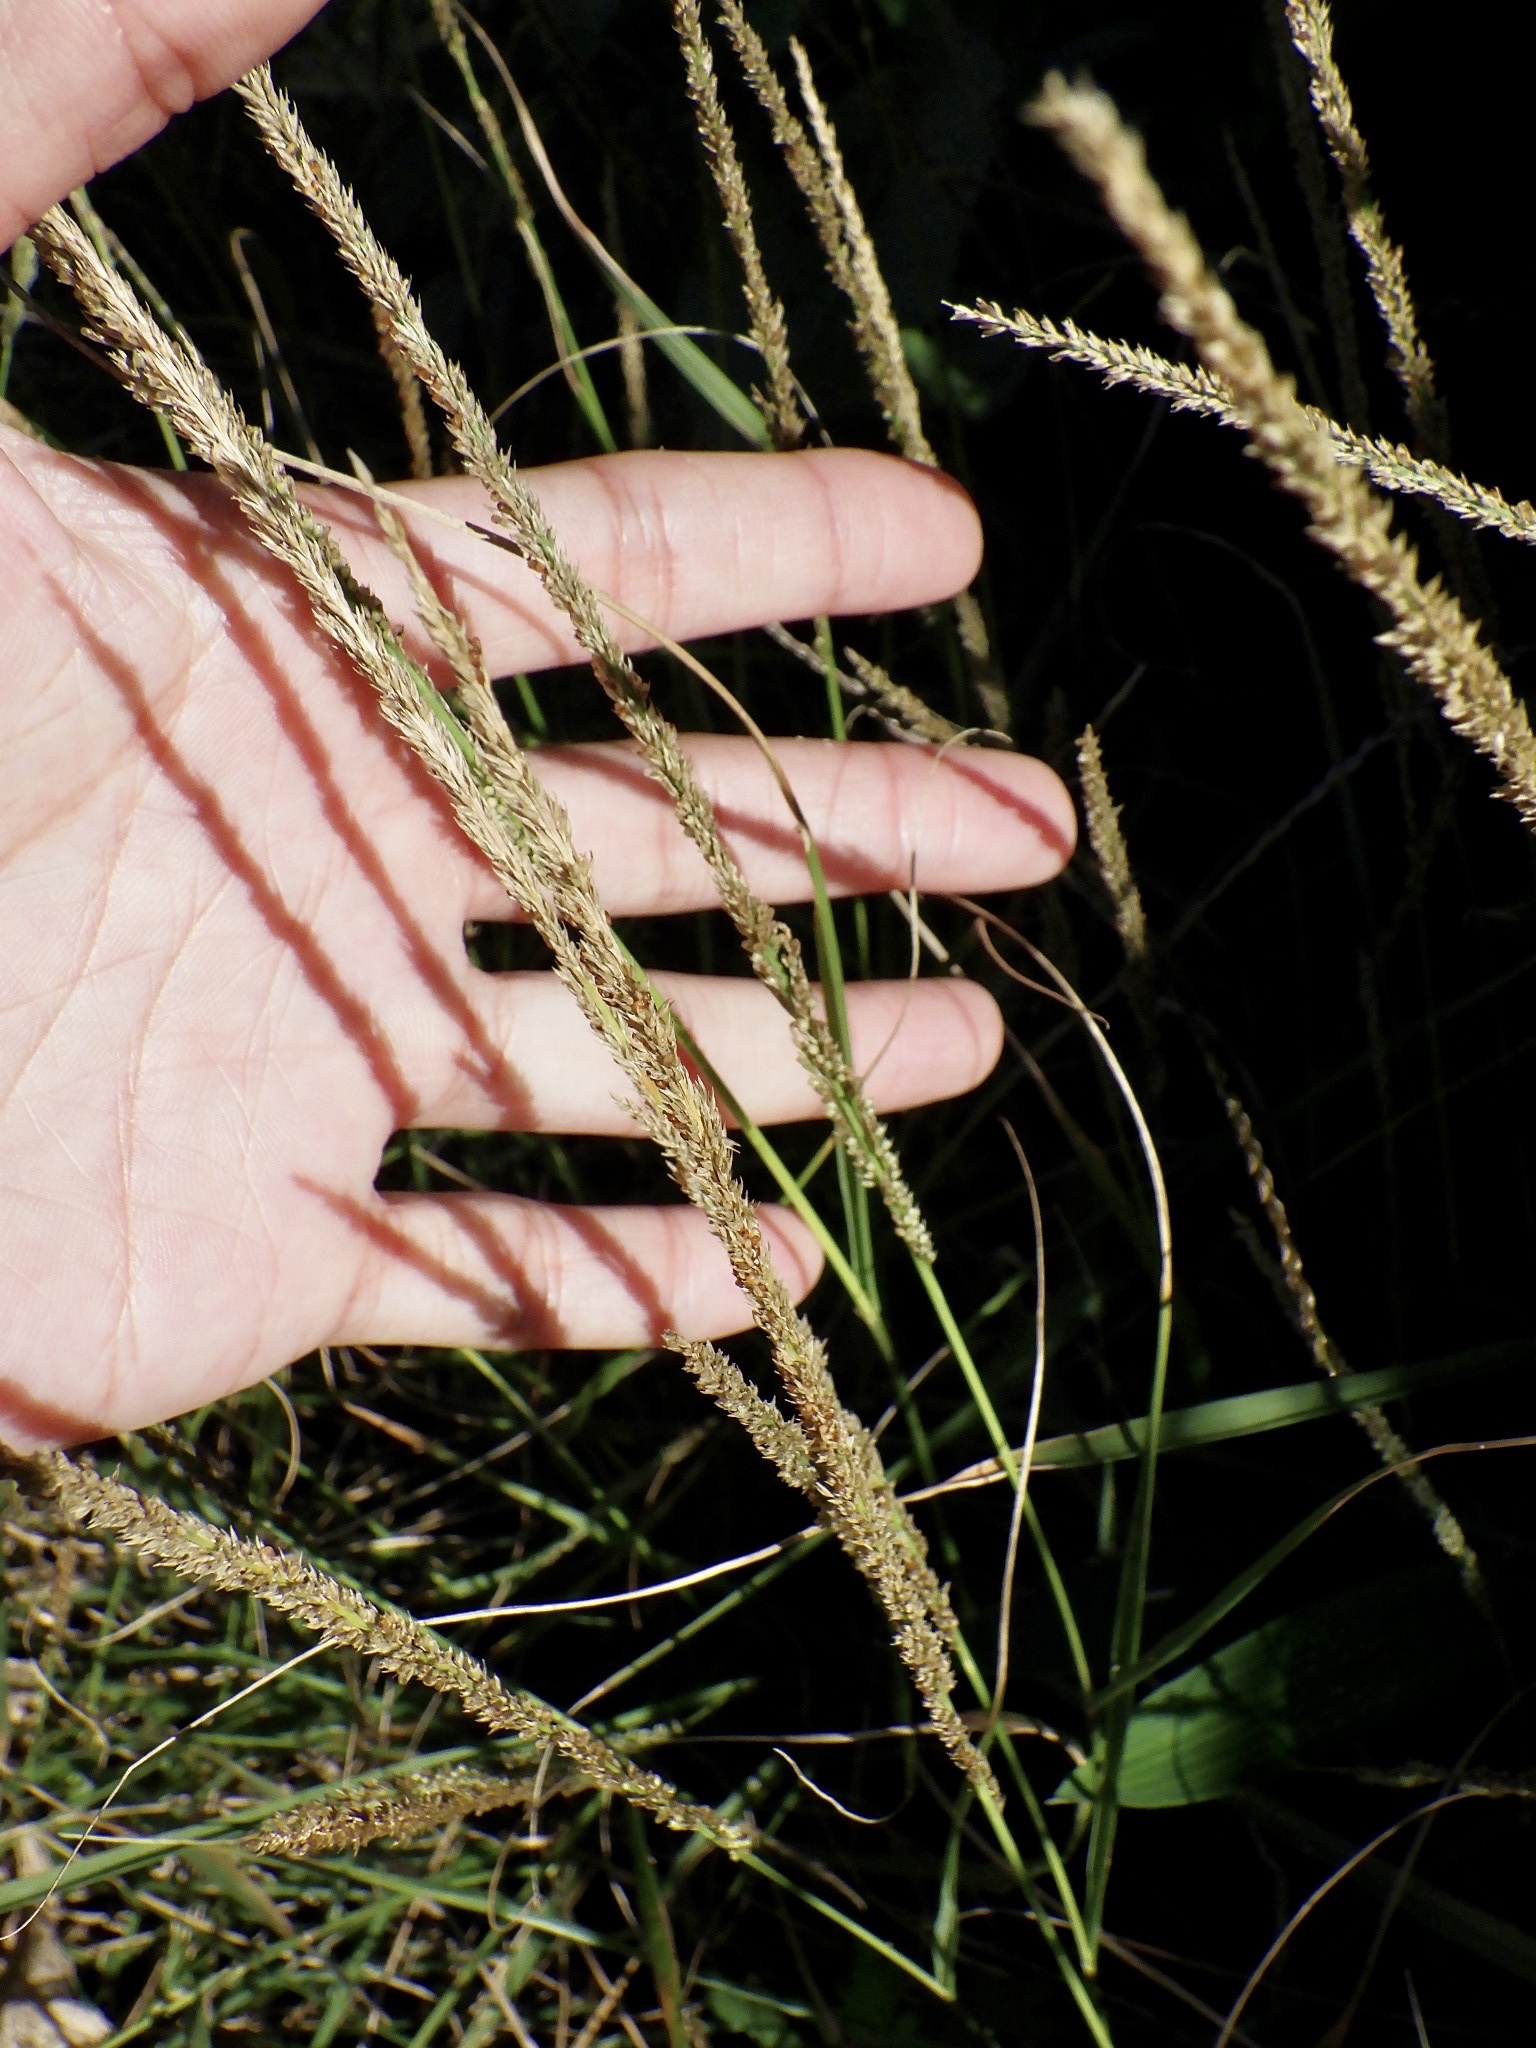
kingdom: Plantae
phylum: Tracheophyta
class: Liliopsida
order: Poales
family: Poaceae
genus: Sporobolus
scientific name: Sporobolus fertilis
